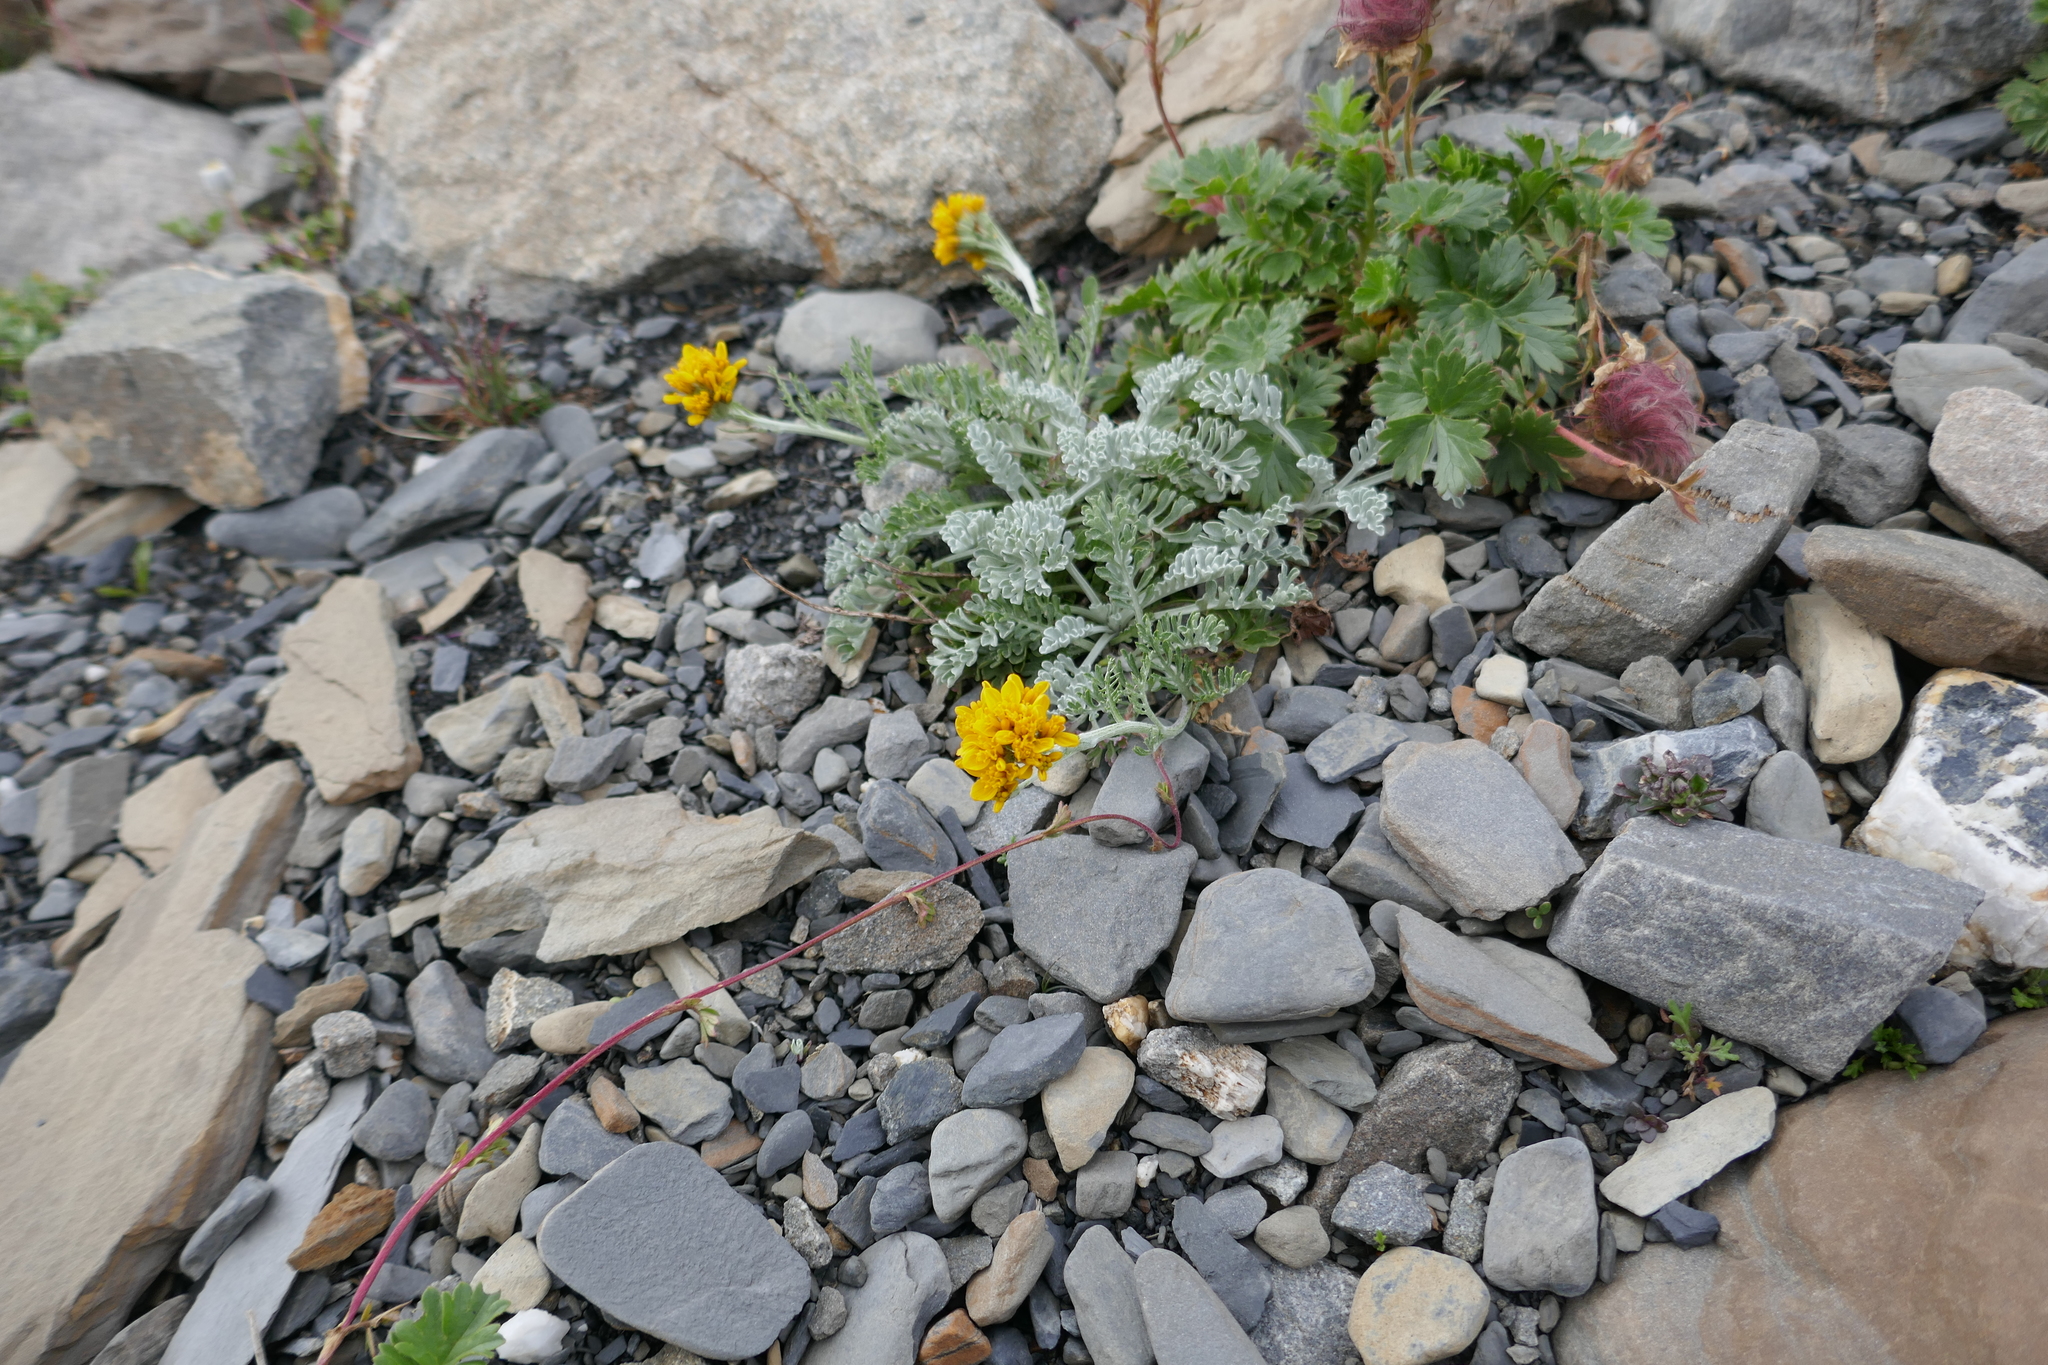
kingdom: Plantae
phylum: Tracheophyta
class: Magnoliopsida
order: Asterales
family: Asteraceae
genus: Jacobaea
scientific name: Jacobaea incana
